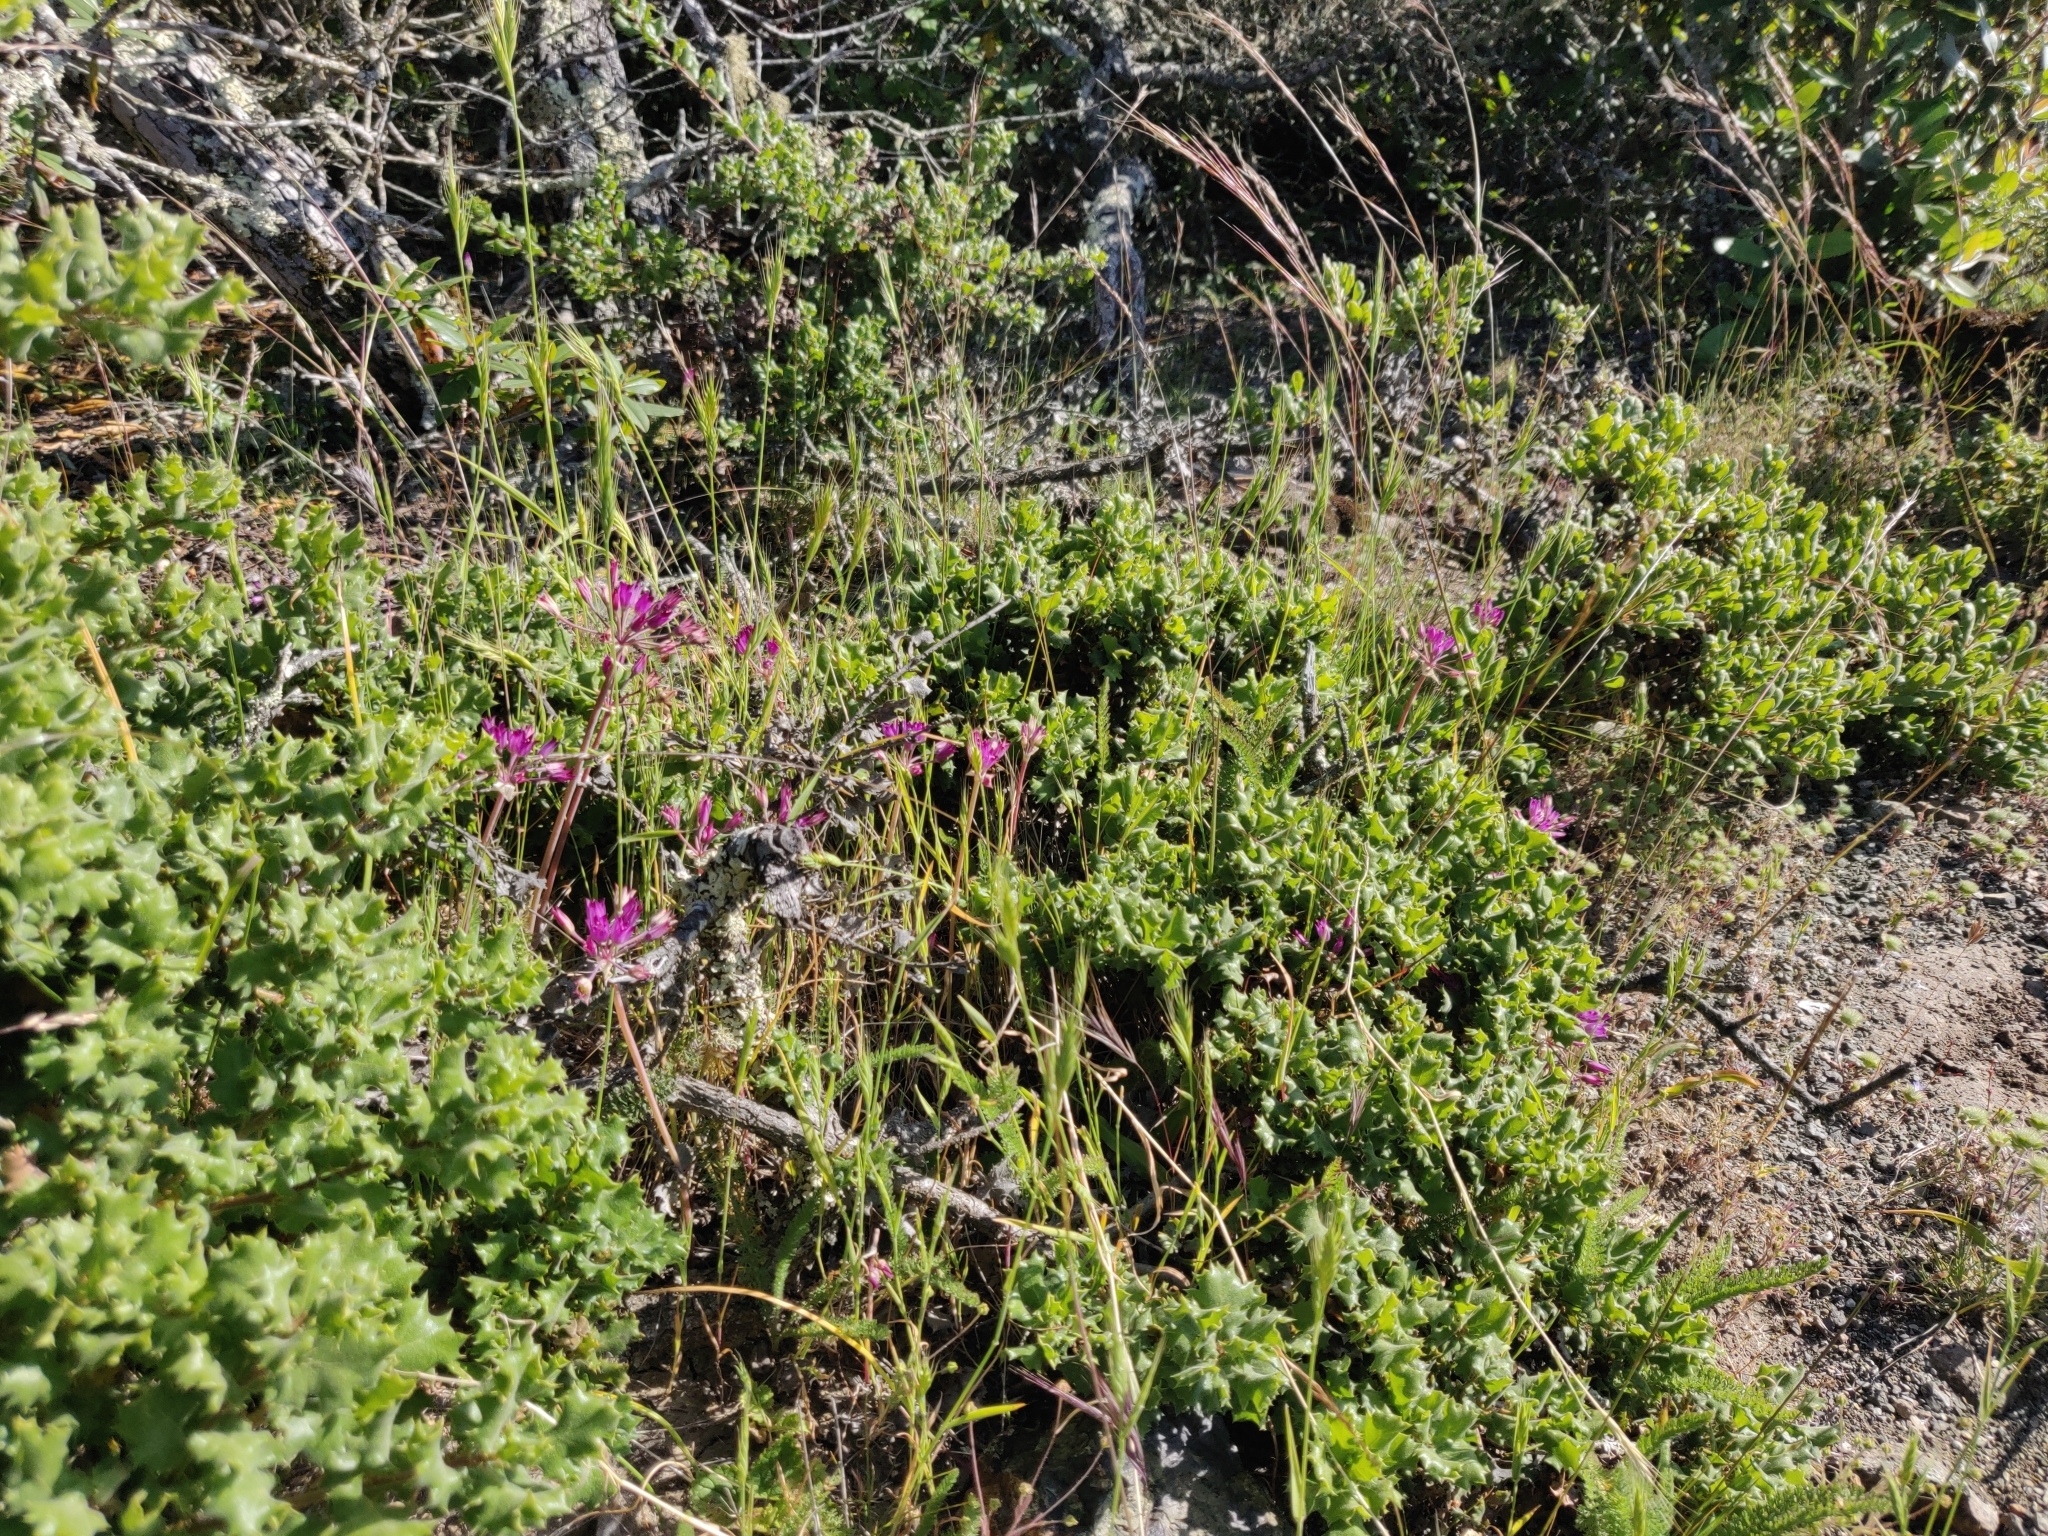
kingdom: Plantae
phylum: Tracheophyta
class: Liliopsida
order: Asparagales
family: Amaryllidaceae
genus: Allium
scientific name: Allium peninsulare
